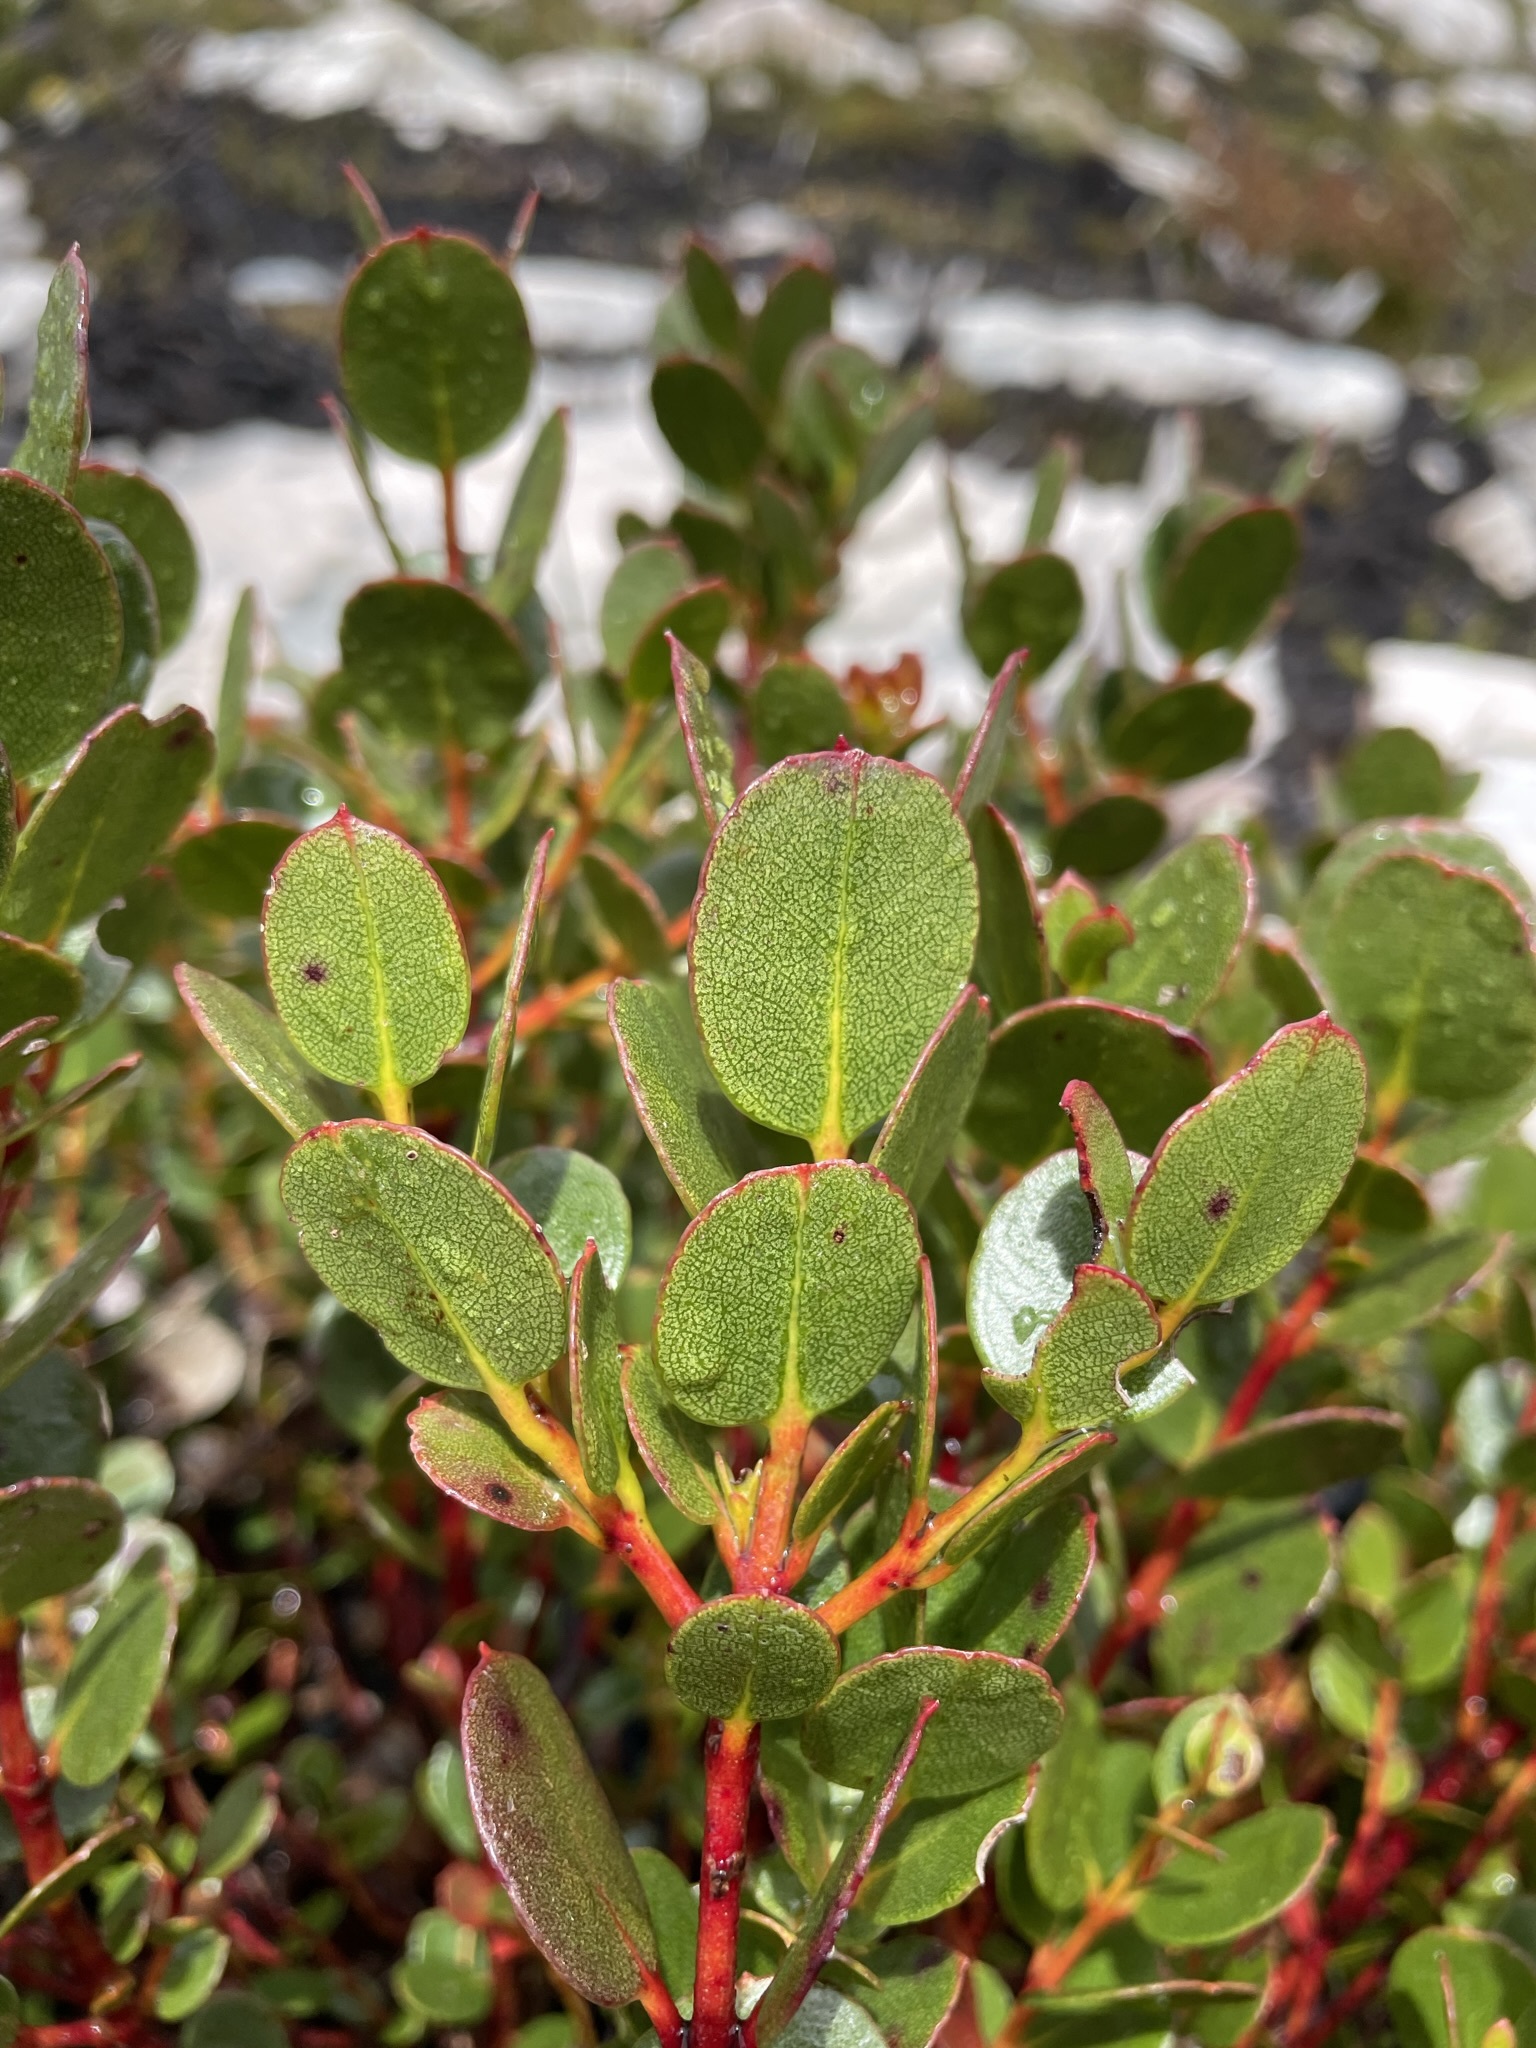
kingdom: Plantae
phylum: Tracheophyta
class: Magnoliopsida
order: Myrtales
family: Myrtaceae
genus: Eucalyptus
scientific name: Eucalyptus vernicosa
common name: Varnished gum
